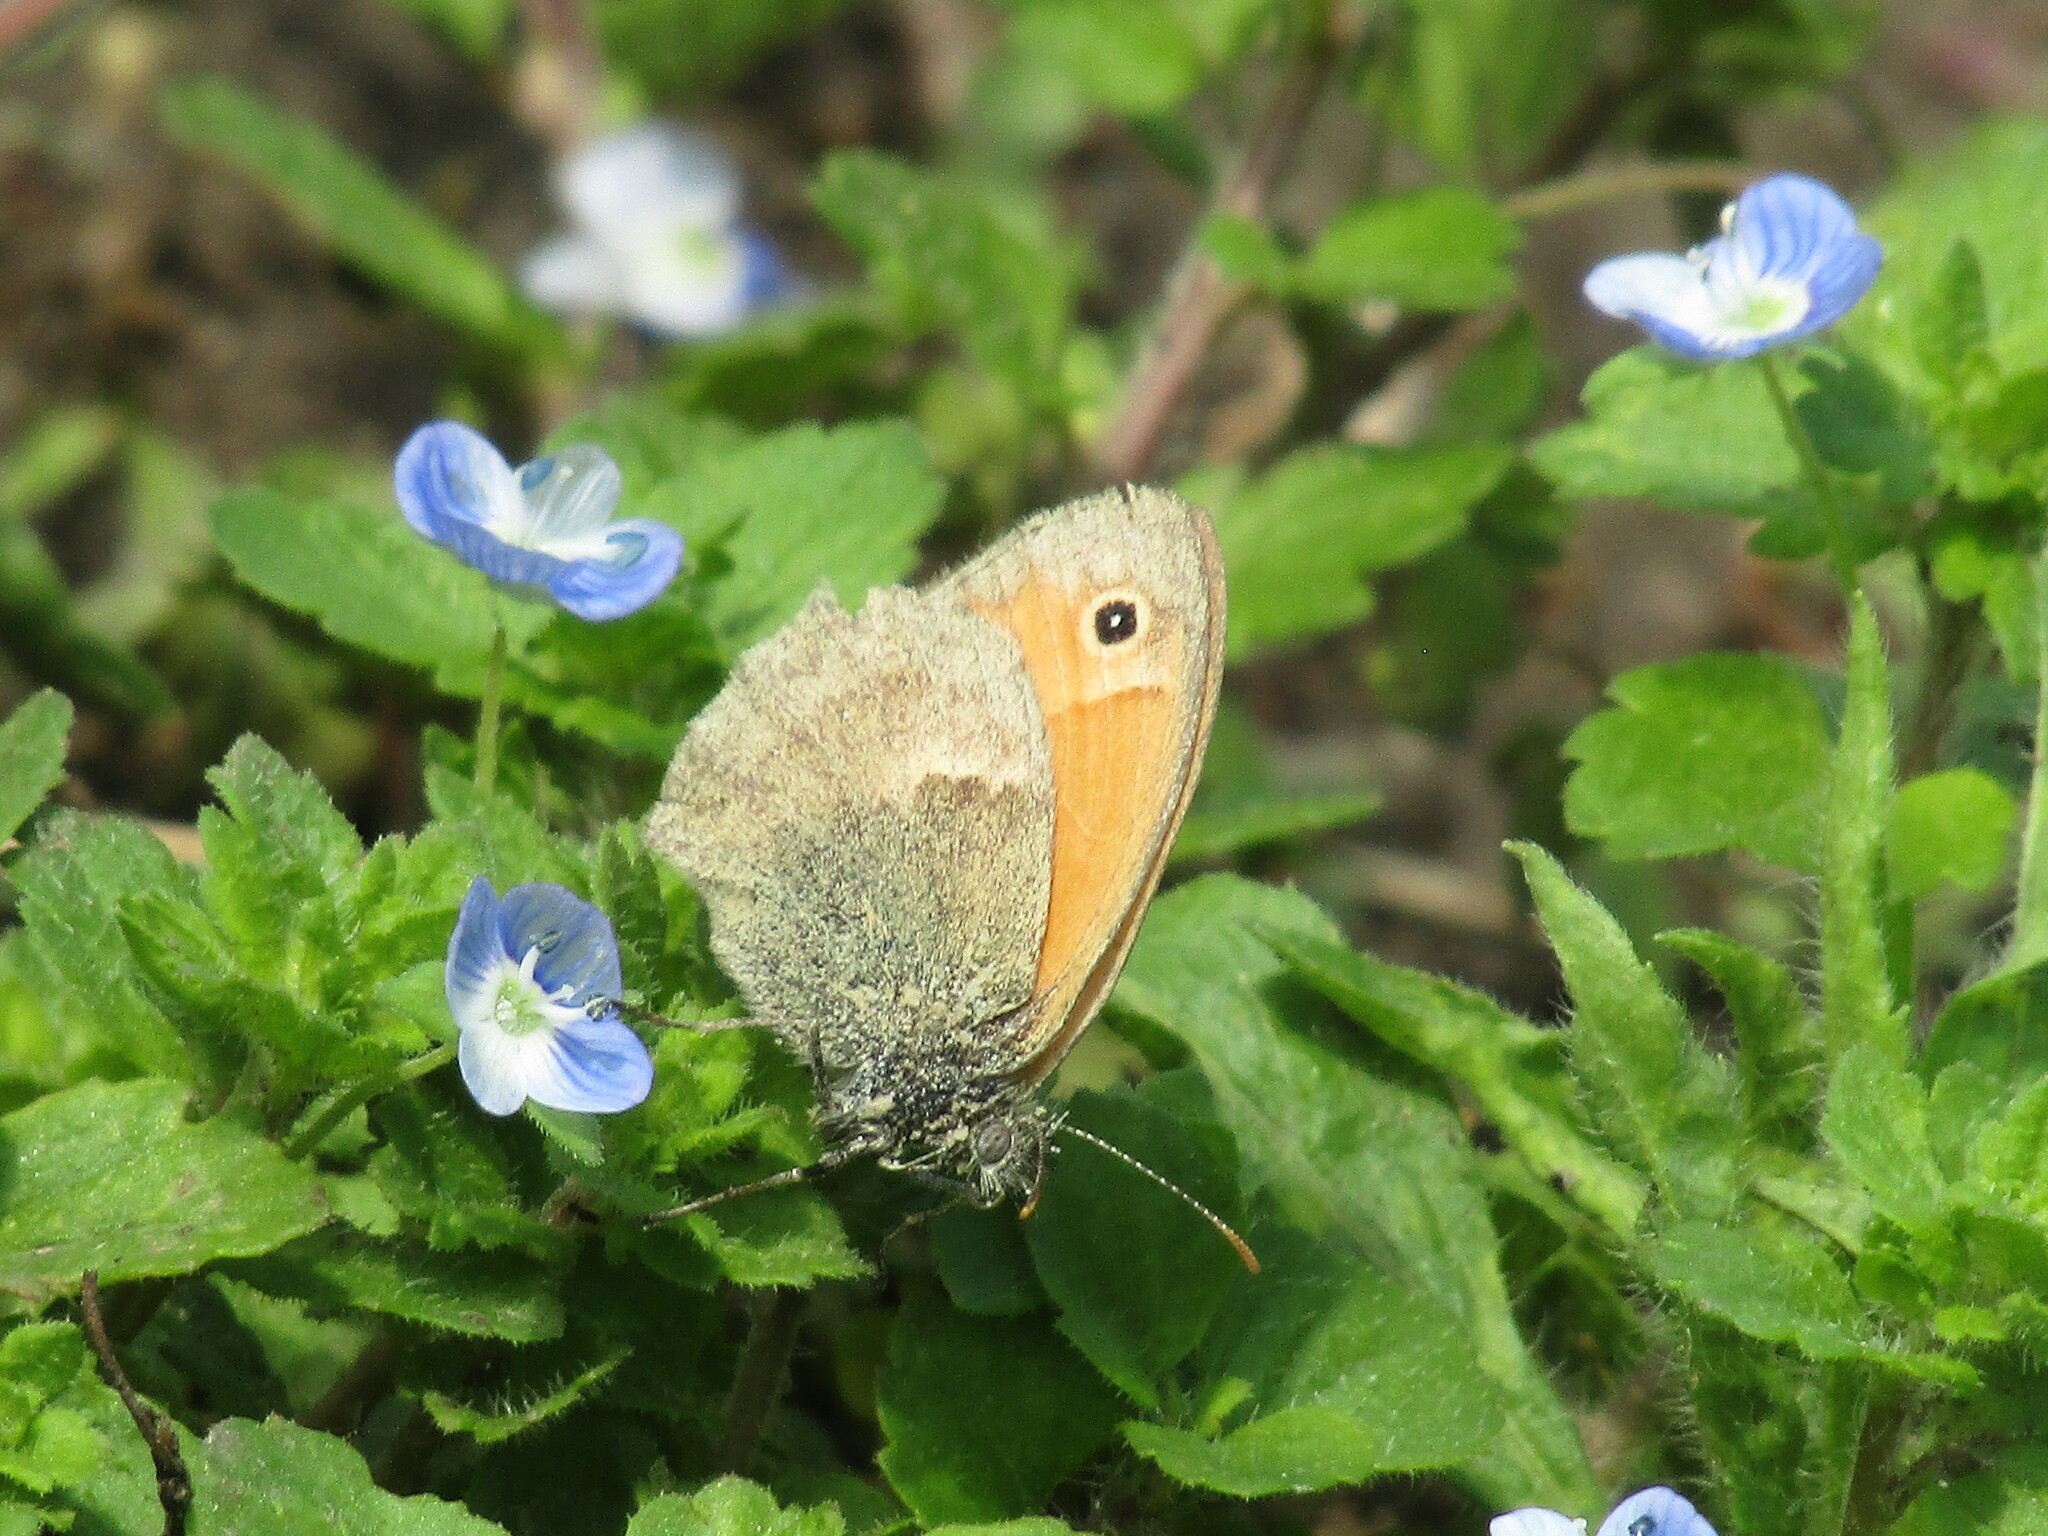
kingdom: Animalia
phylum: Arthropoda
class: Insecta
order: Lepidoptera
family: Nymphalidae
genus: Coenonympha
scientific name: Coenonympha pamphilus
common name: Small heath
